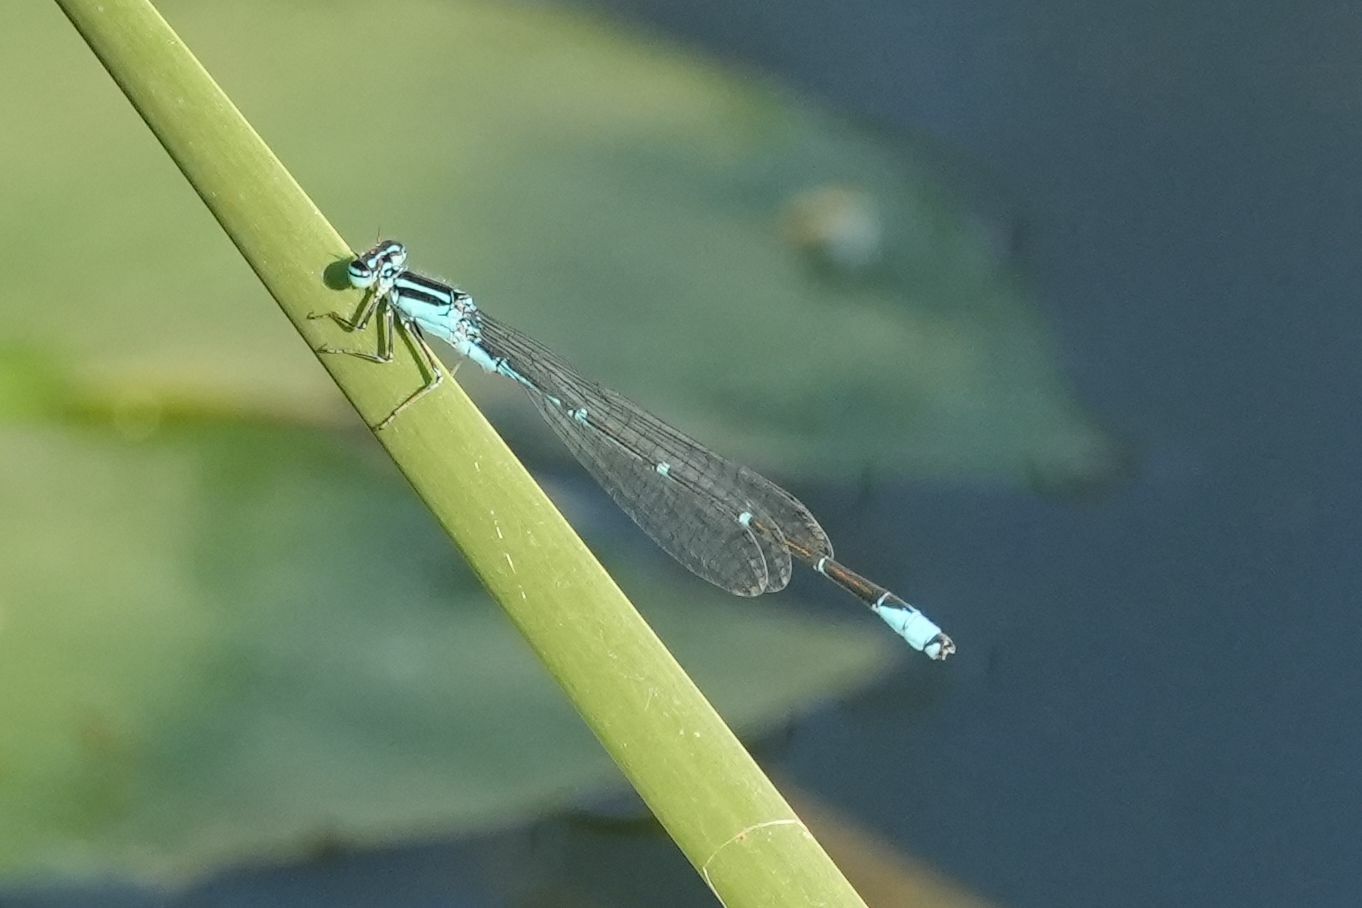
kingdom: Animalia
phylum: Arthropoda
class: Insecta
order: Odonata
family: Coenagrionidae
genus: Enallagma
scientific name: Enallagma exsulans
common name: Stream bluet
